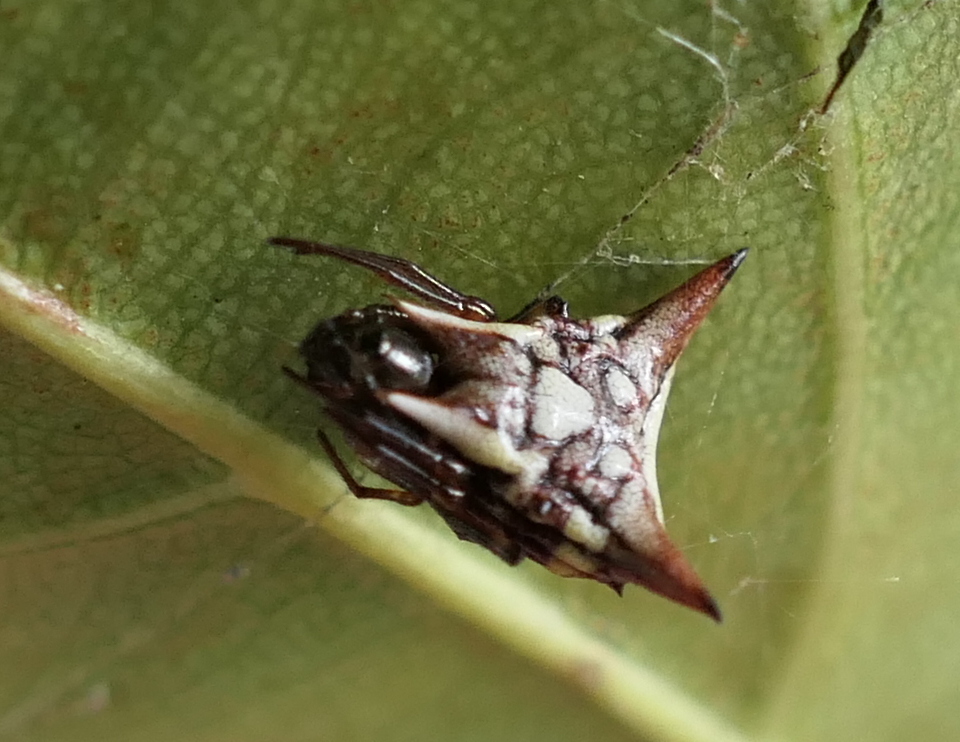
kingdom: Animalia
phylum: Arthropoda
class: Arachnida
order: Araneae
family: Araneidae
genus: Micrathena
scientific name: Micrathena evansi
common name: Orb weavers
